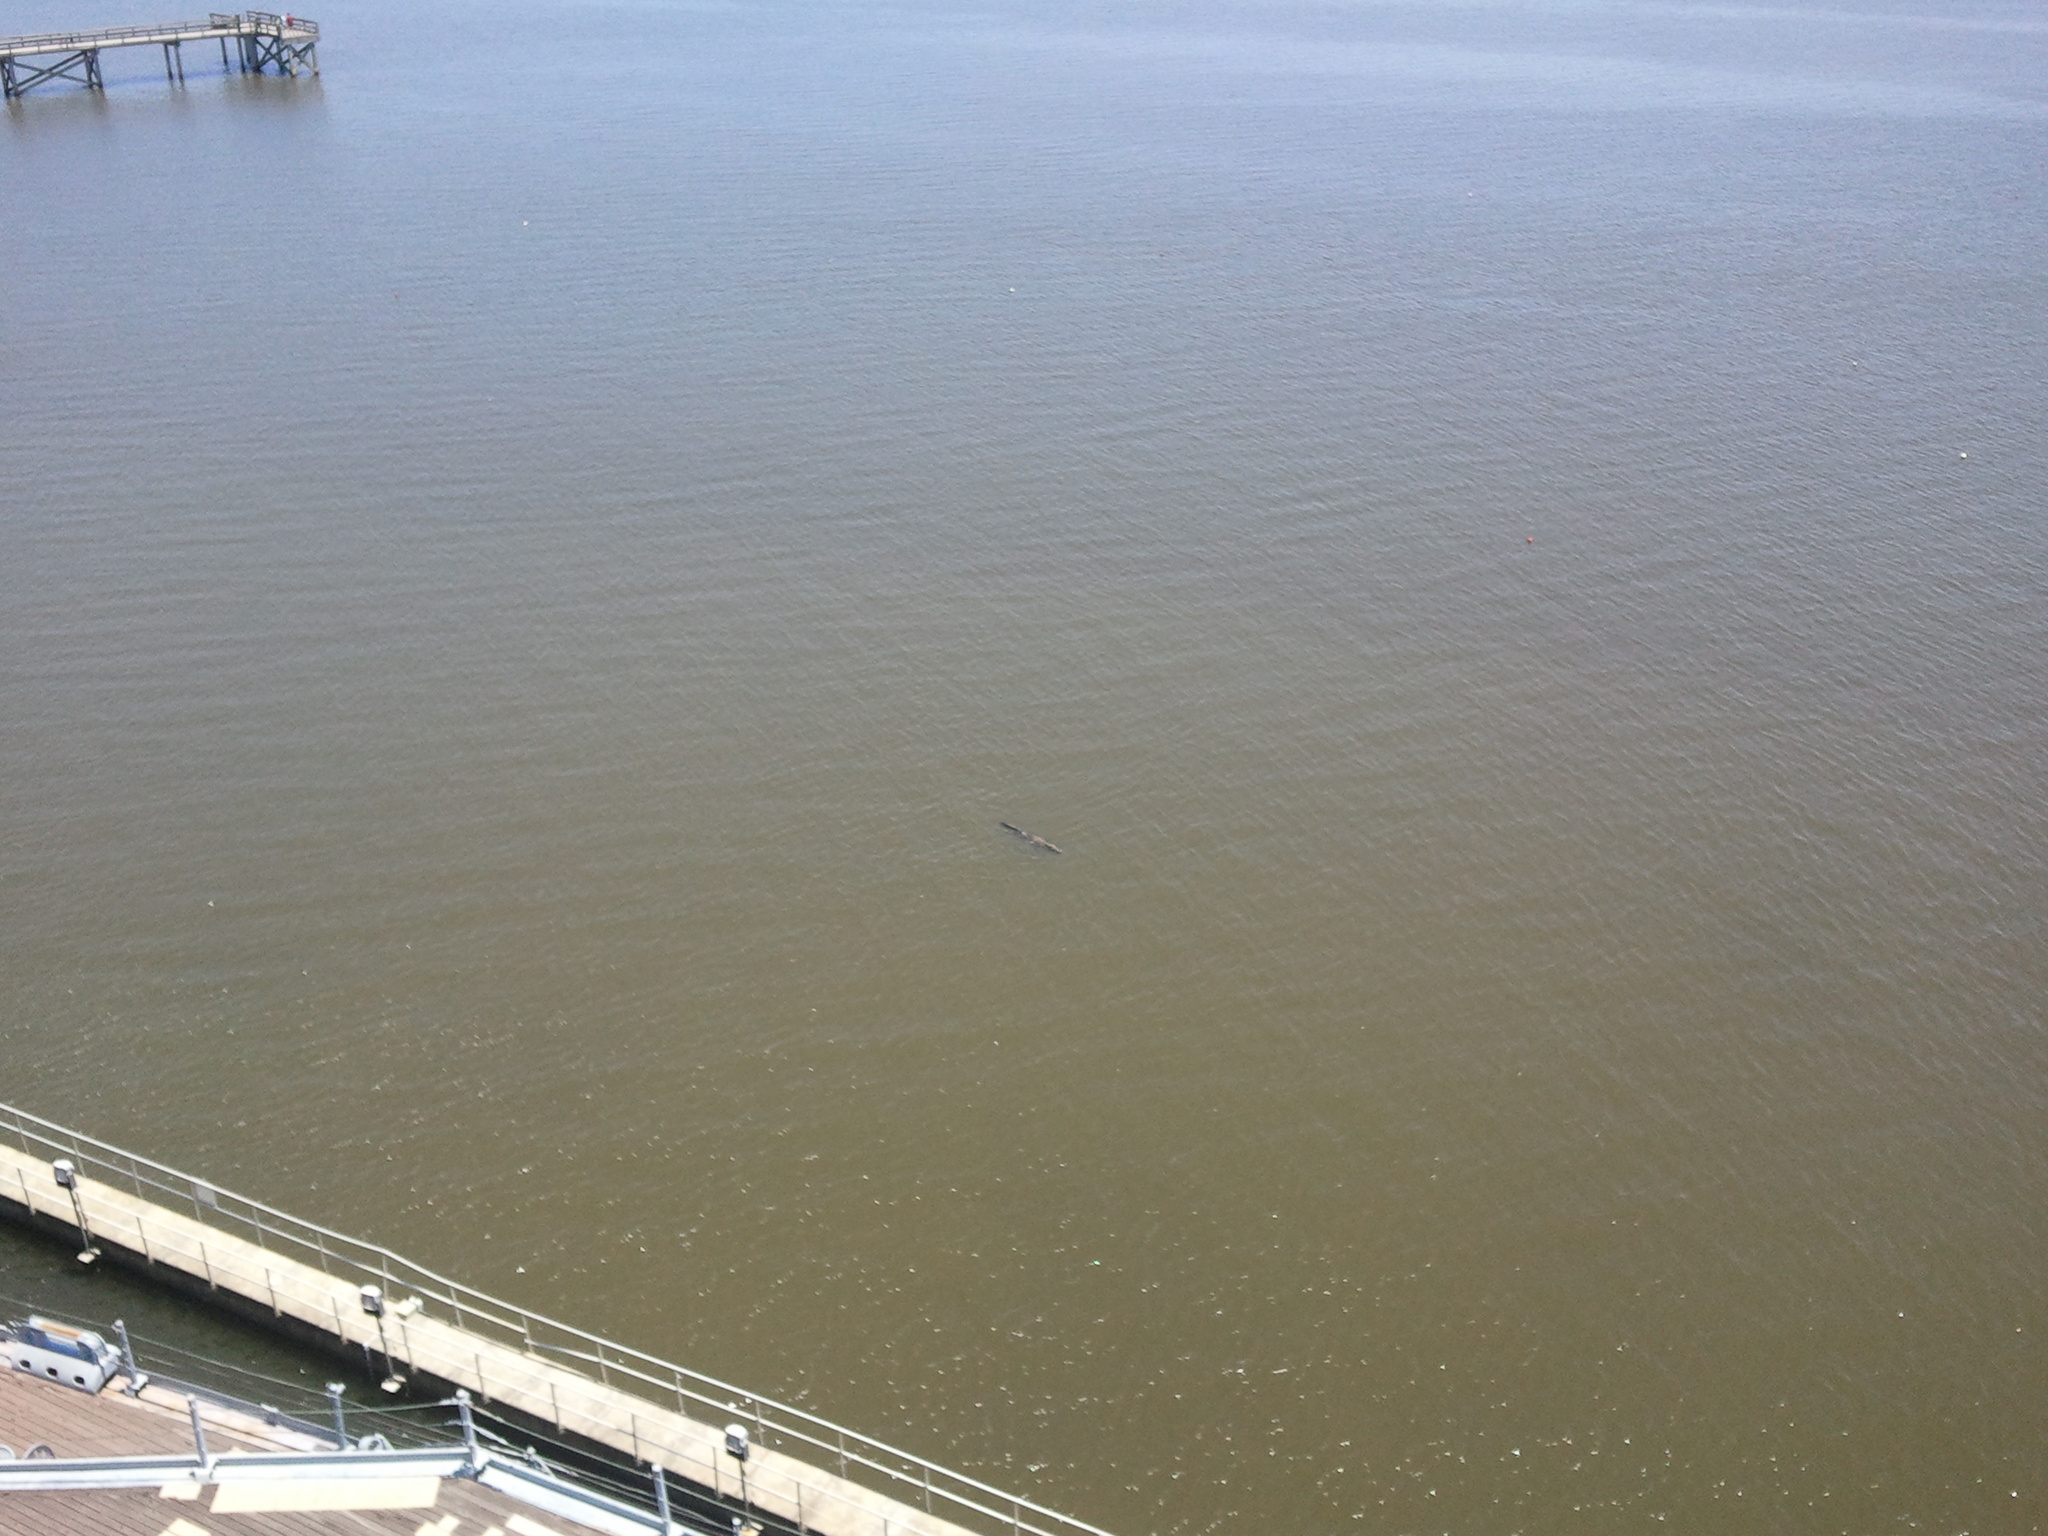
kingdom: Animalia
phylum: Chordata
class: Crocodylia
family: Alligatoridae
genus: Alligator
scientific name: Alligator mississippiensis
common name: American alligator
